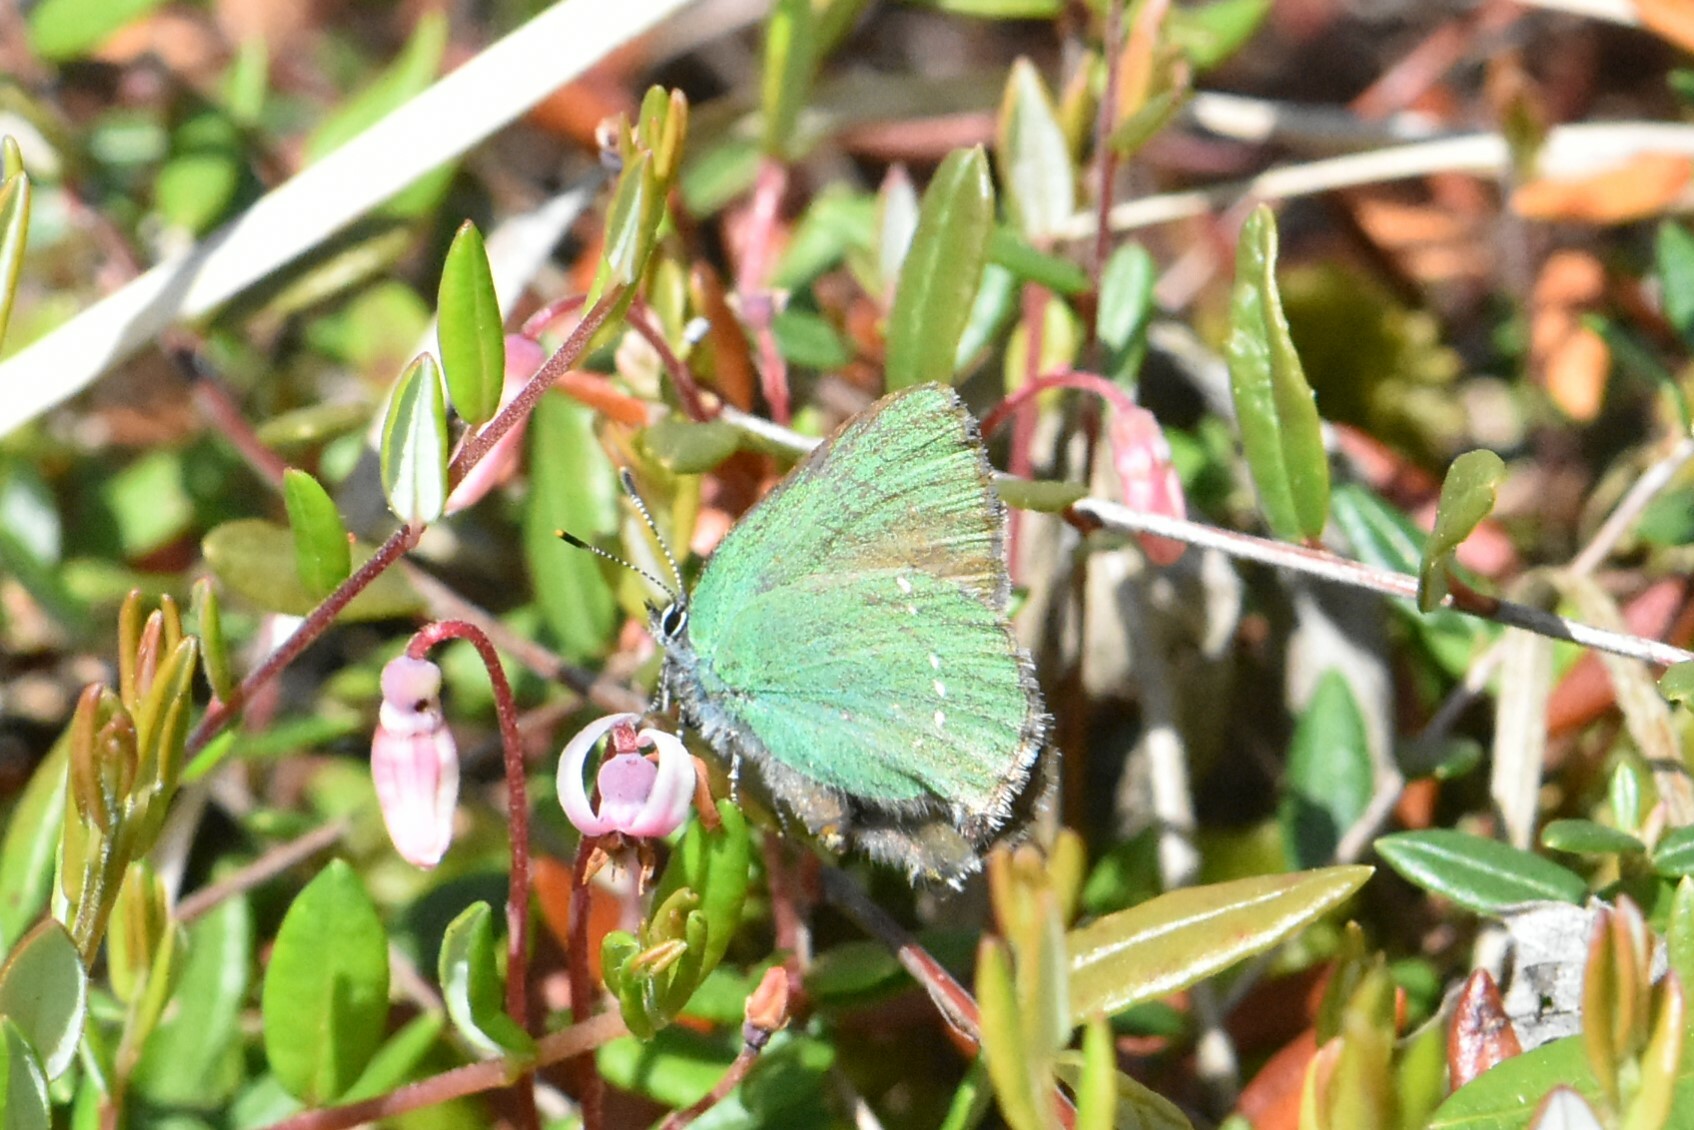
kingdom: Animalia
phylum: Arthropoda
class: Insecta
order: Lepidoptera
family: Lycaenidae
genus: Callophrys
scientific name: Callophrys rubi
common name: Green hairstreak
